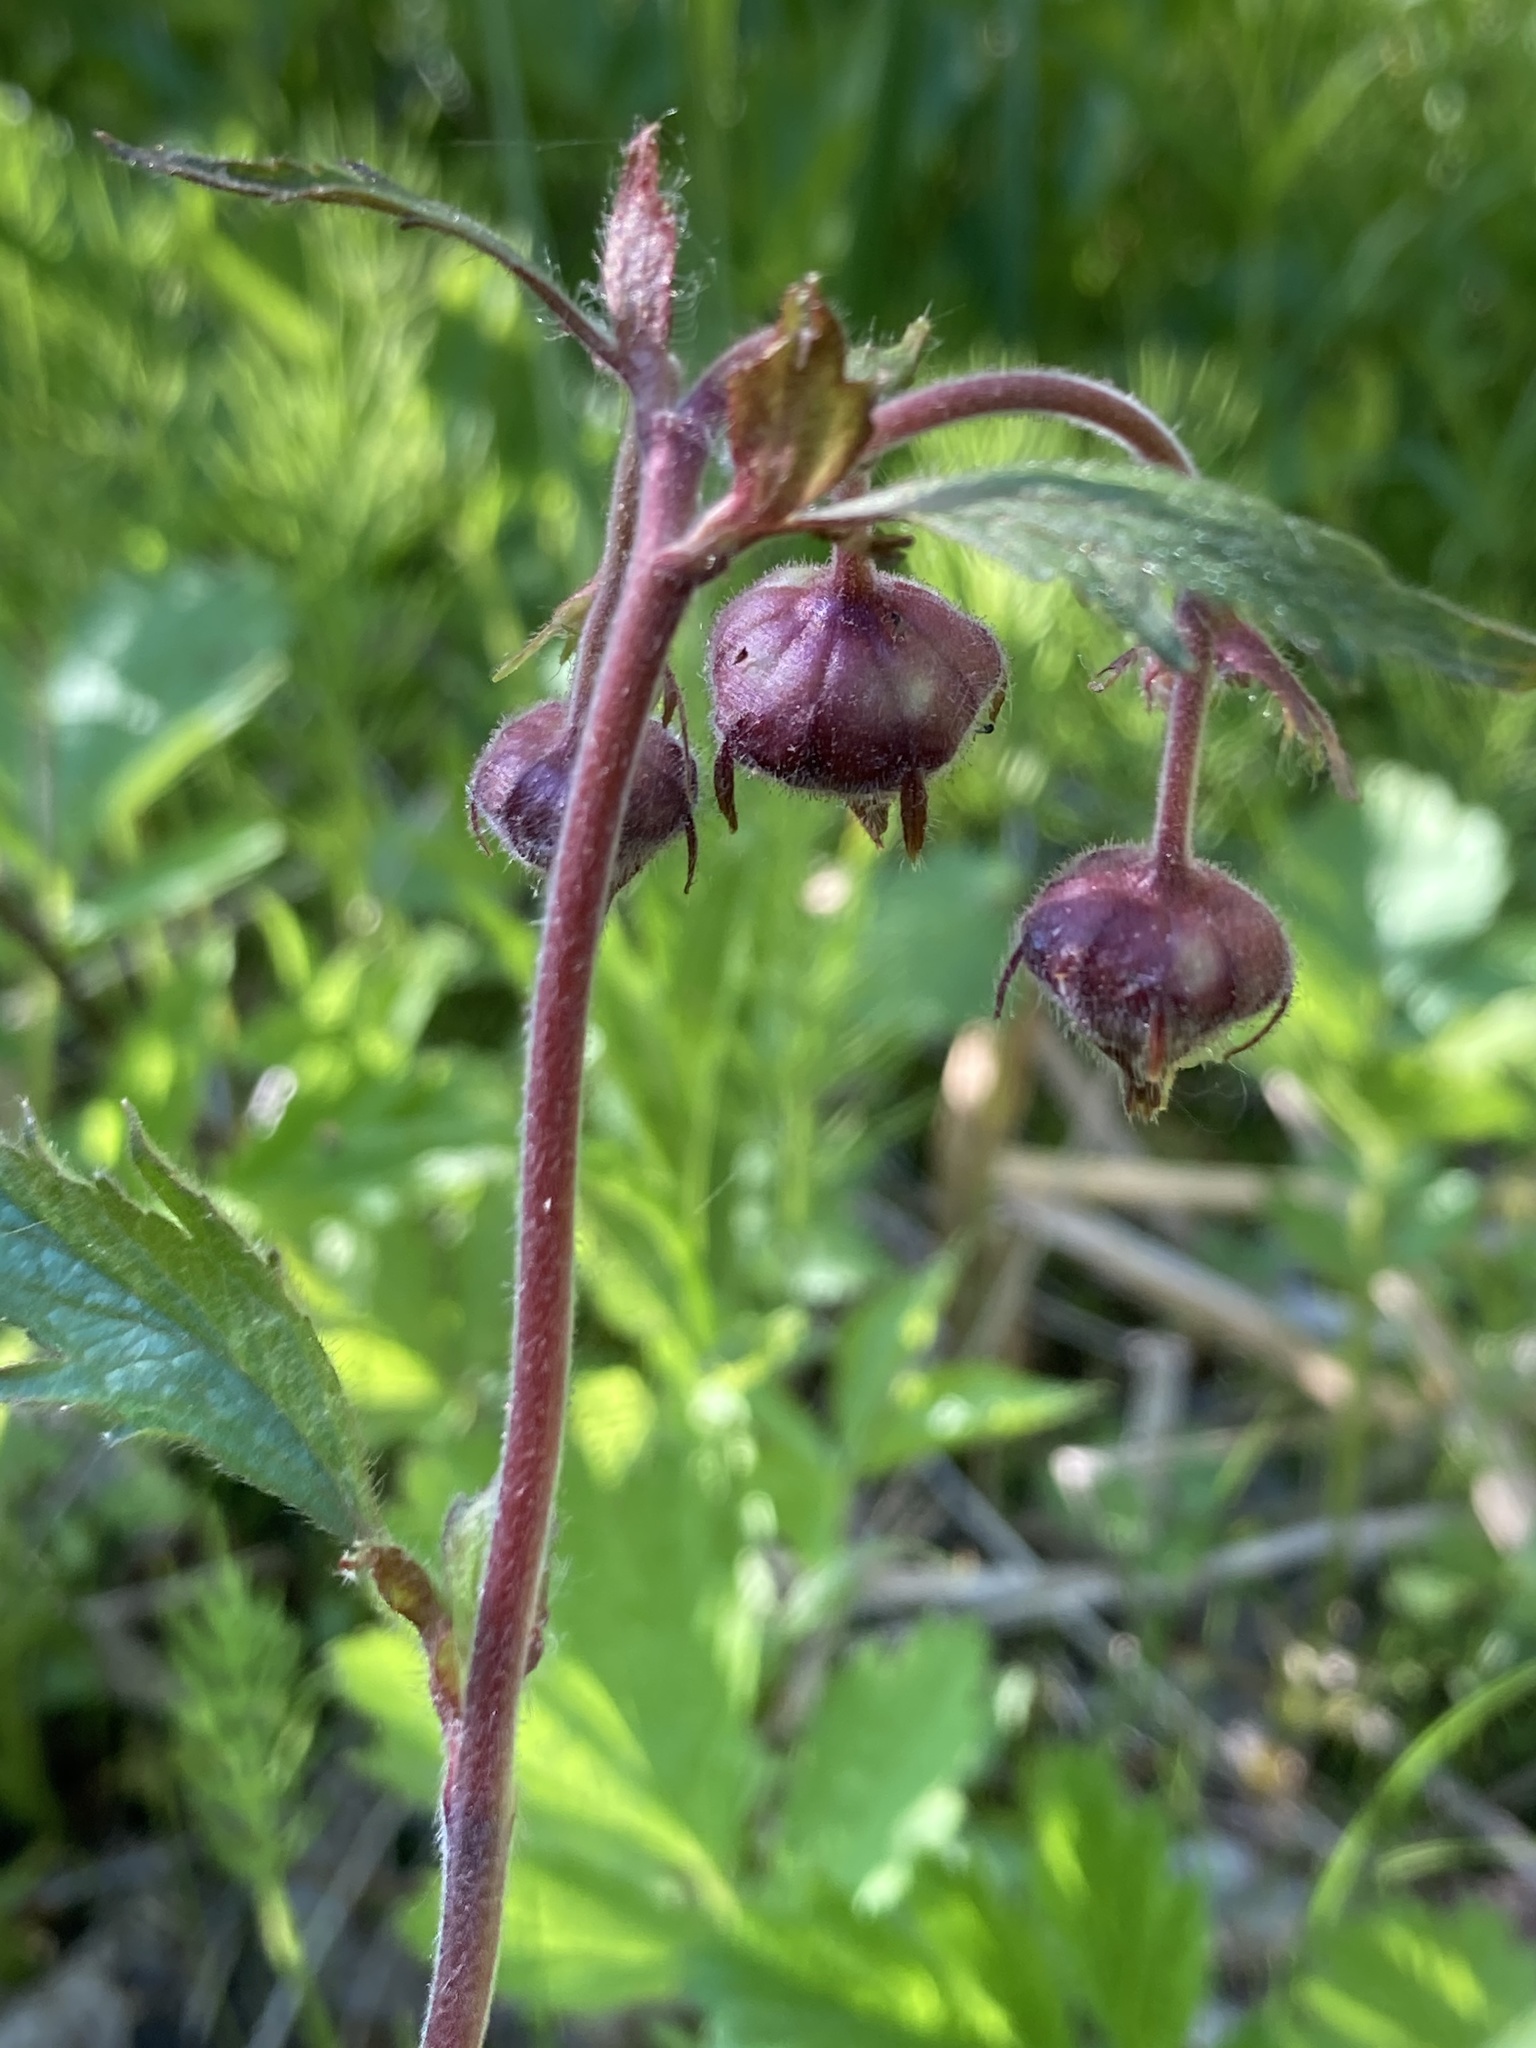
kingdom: Plantae
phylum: Tracheophyta
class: Magnoliopsida
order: Rosales
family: Rosaceae
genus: Geum
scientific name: Geum rivale
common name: Water avens
